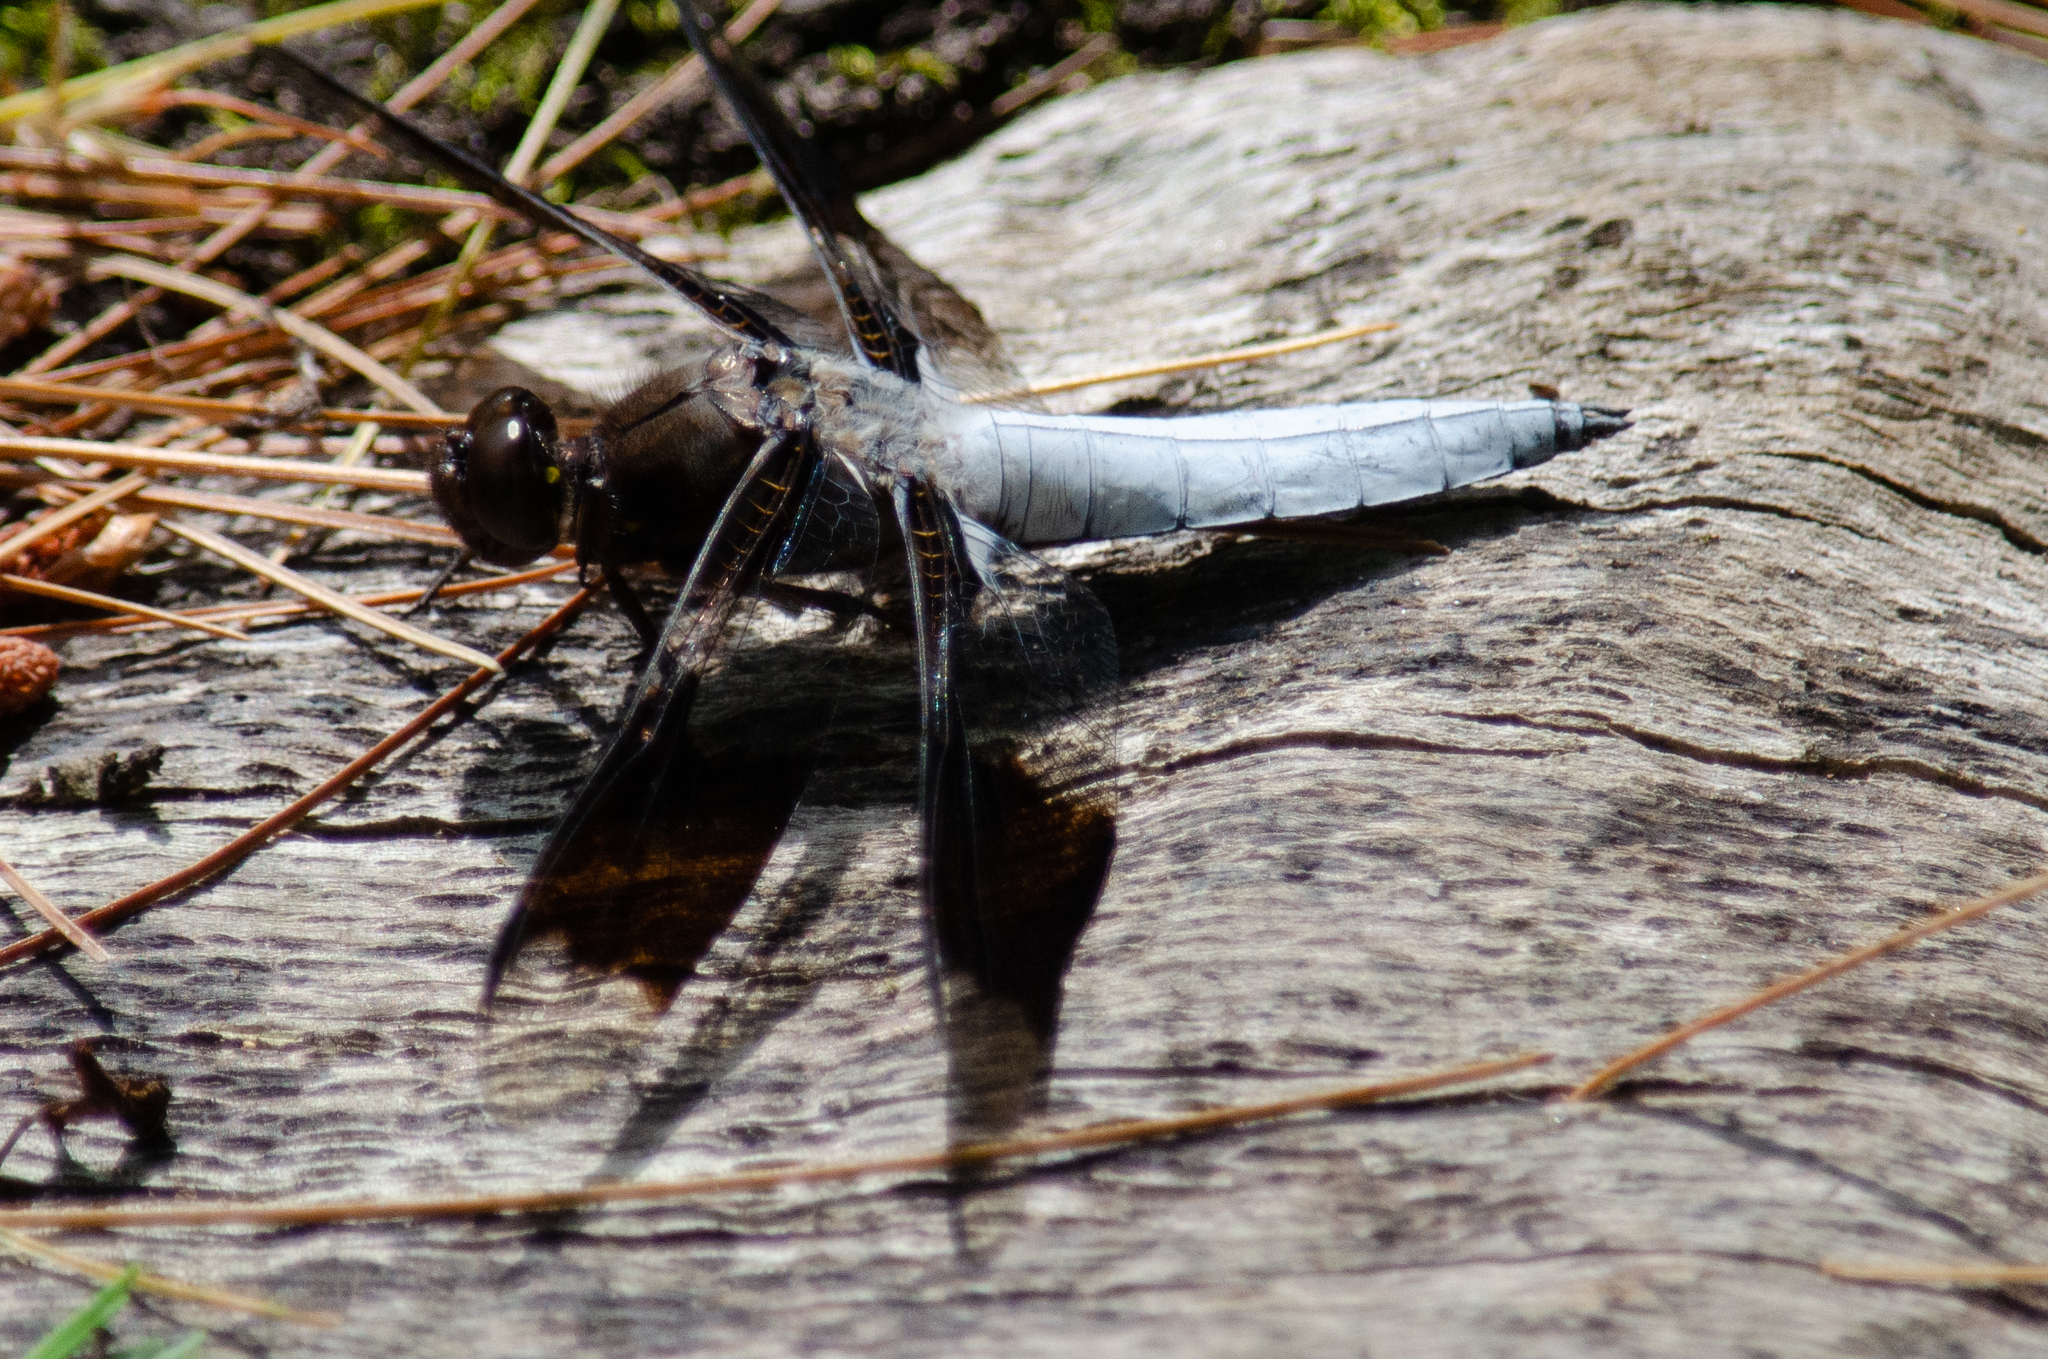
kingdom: Animalia
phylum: Arthropoda
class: Insecta
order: Odonata
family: Libellulidae
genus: Plathemis
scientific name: Plathemis lydia
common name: Common whitetail
